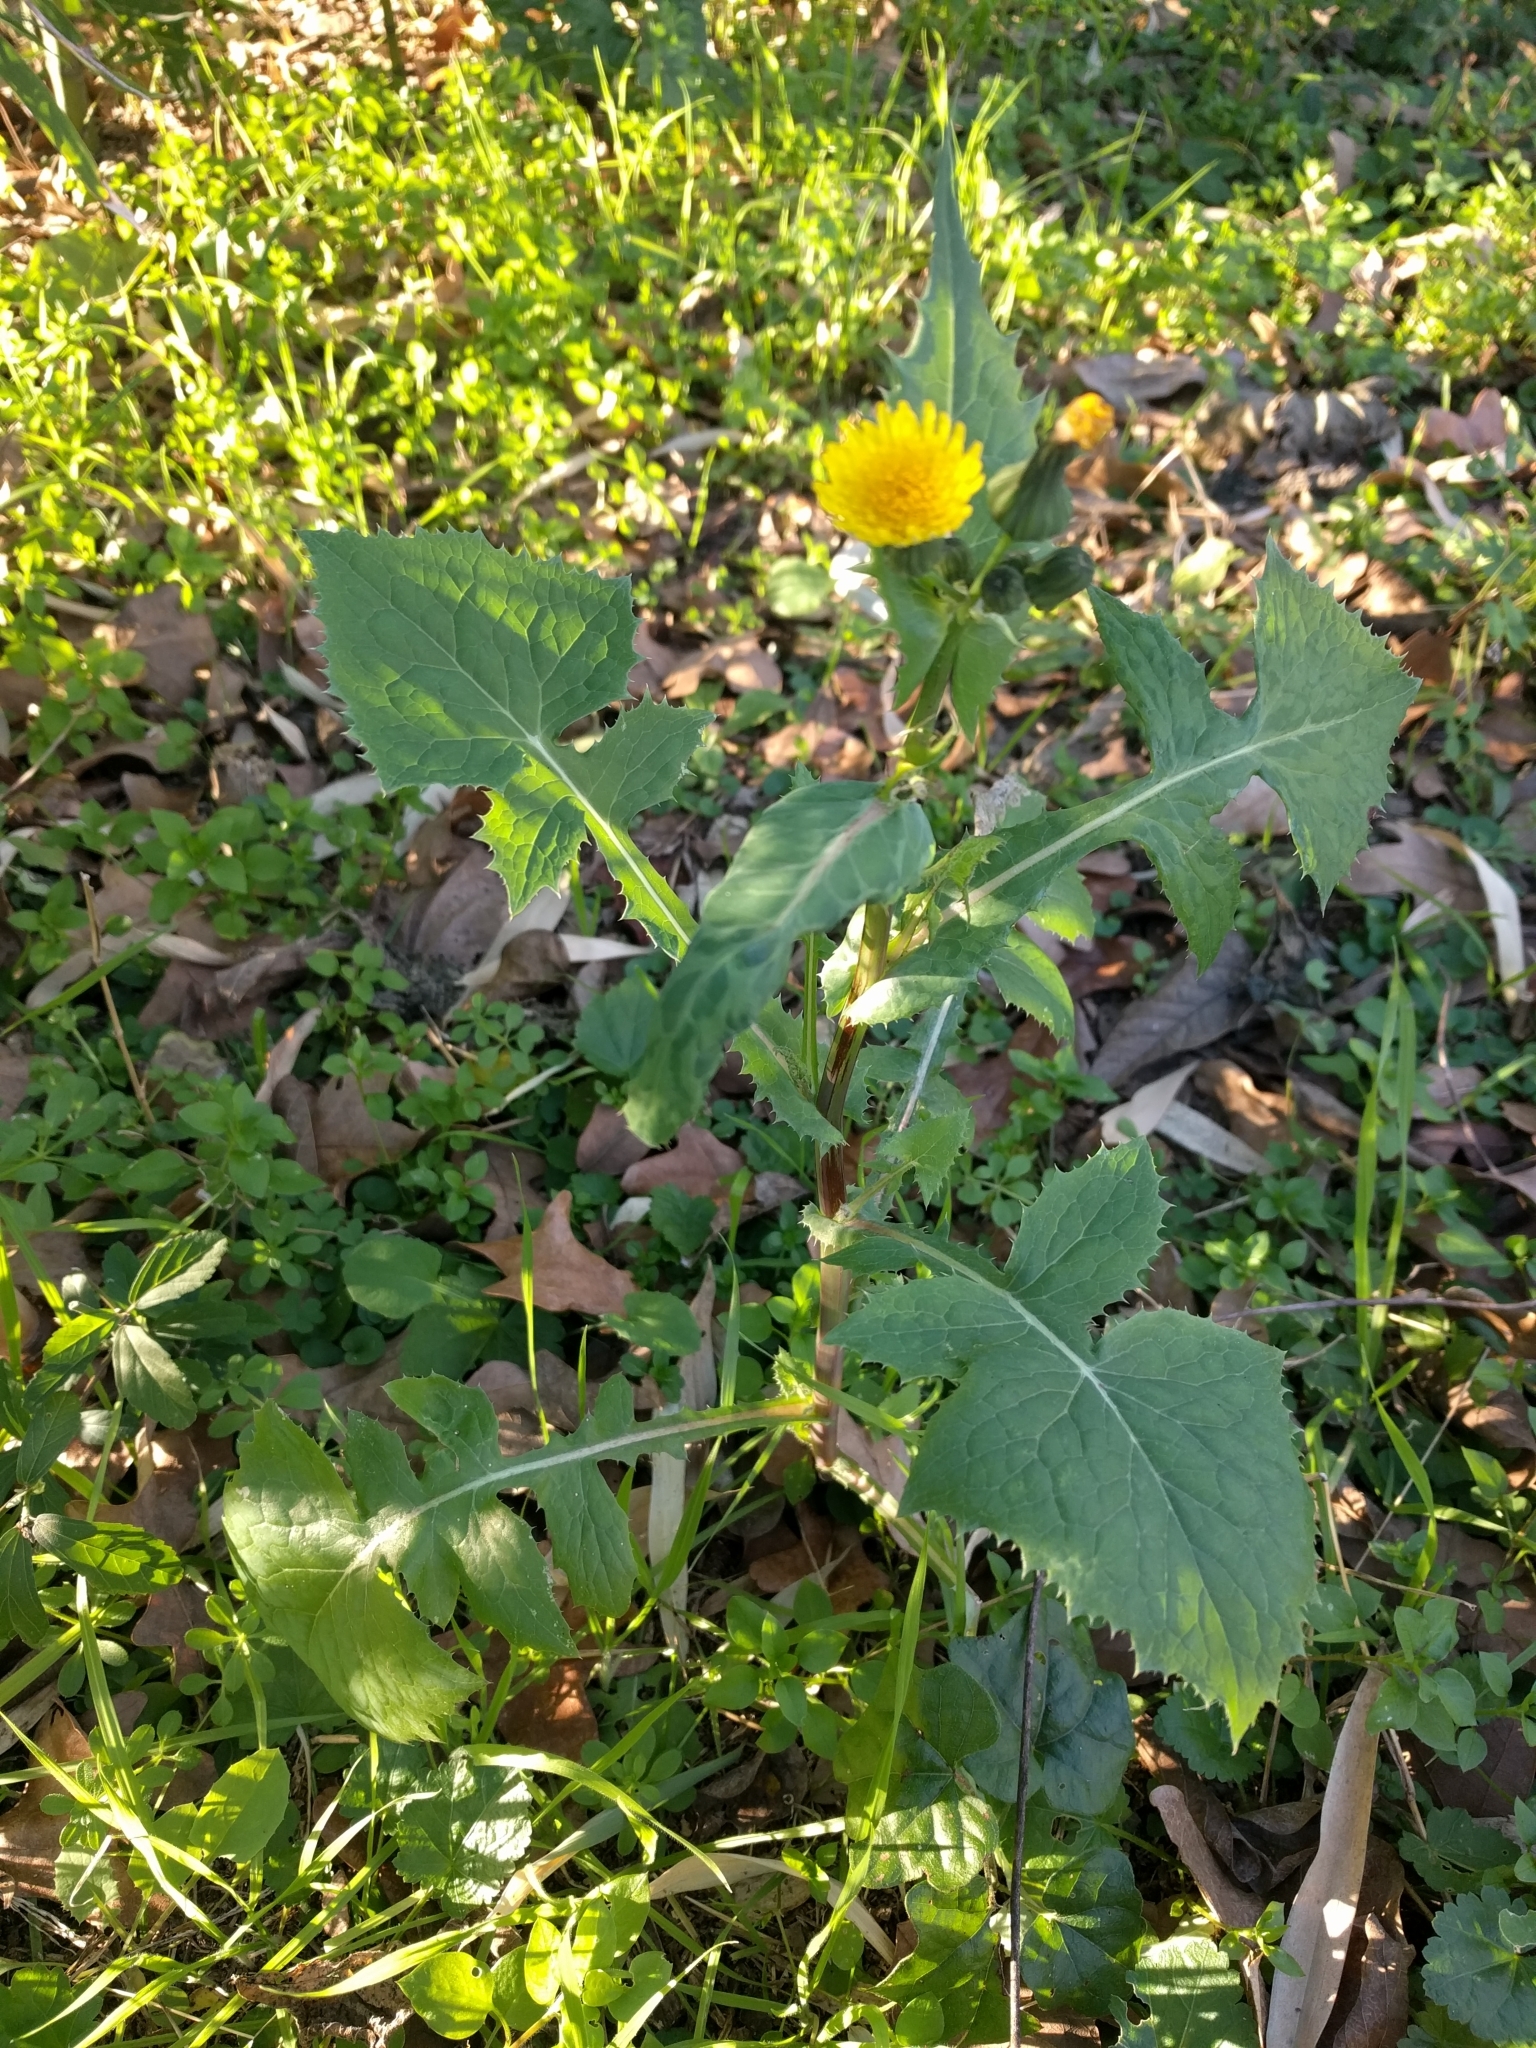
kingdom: Plantae
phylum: Tracheophyta
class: Magnoliopsida
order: Asterales
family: Asteraceae
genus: Sonchus
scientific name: Sonchus oleraceus
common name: Common sowthistle
